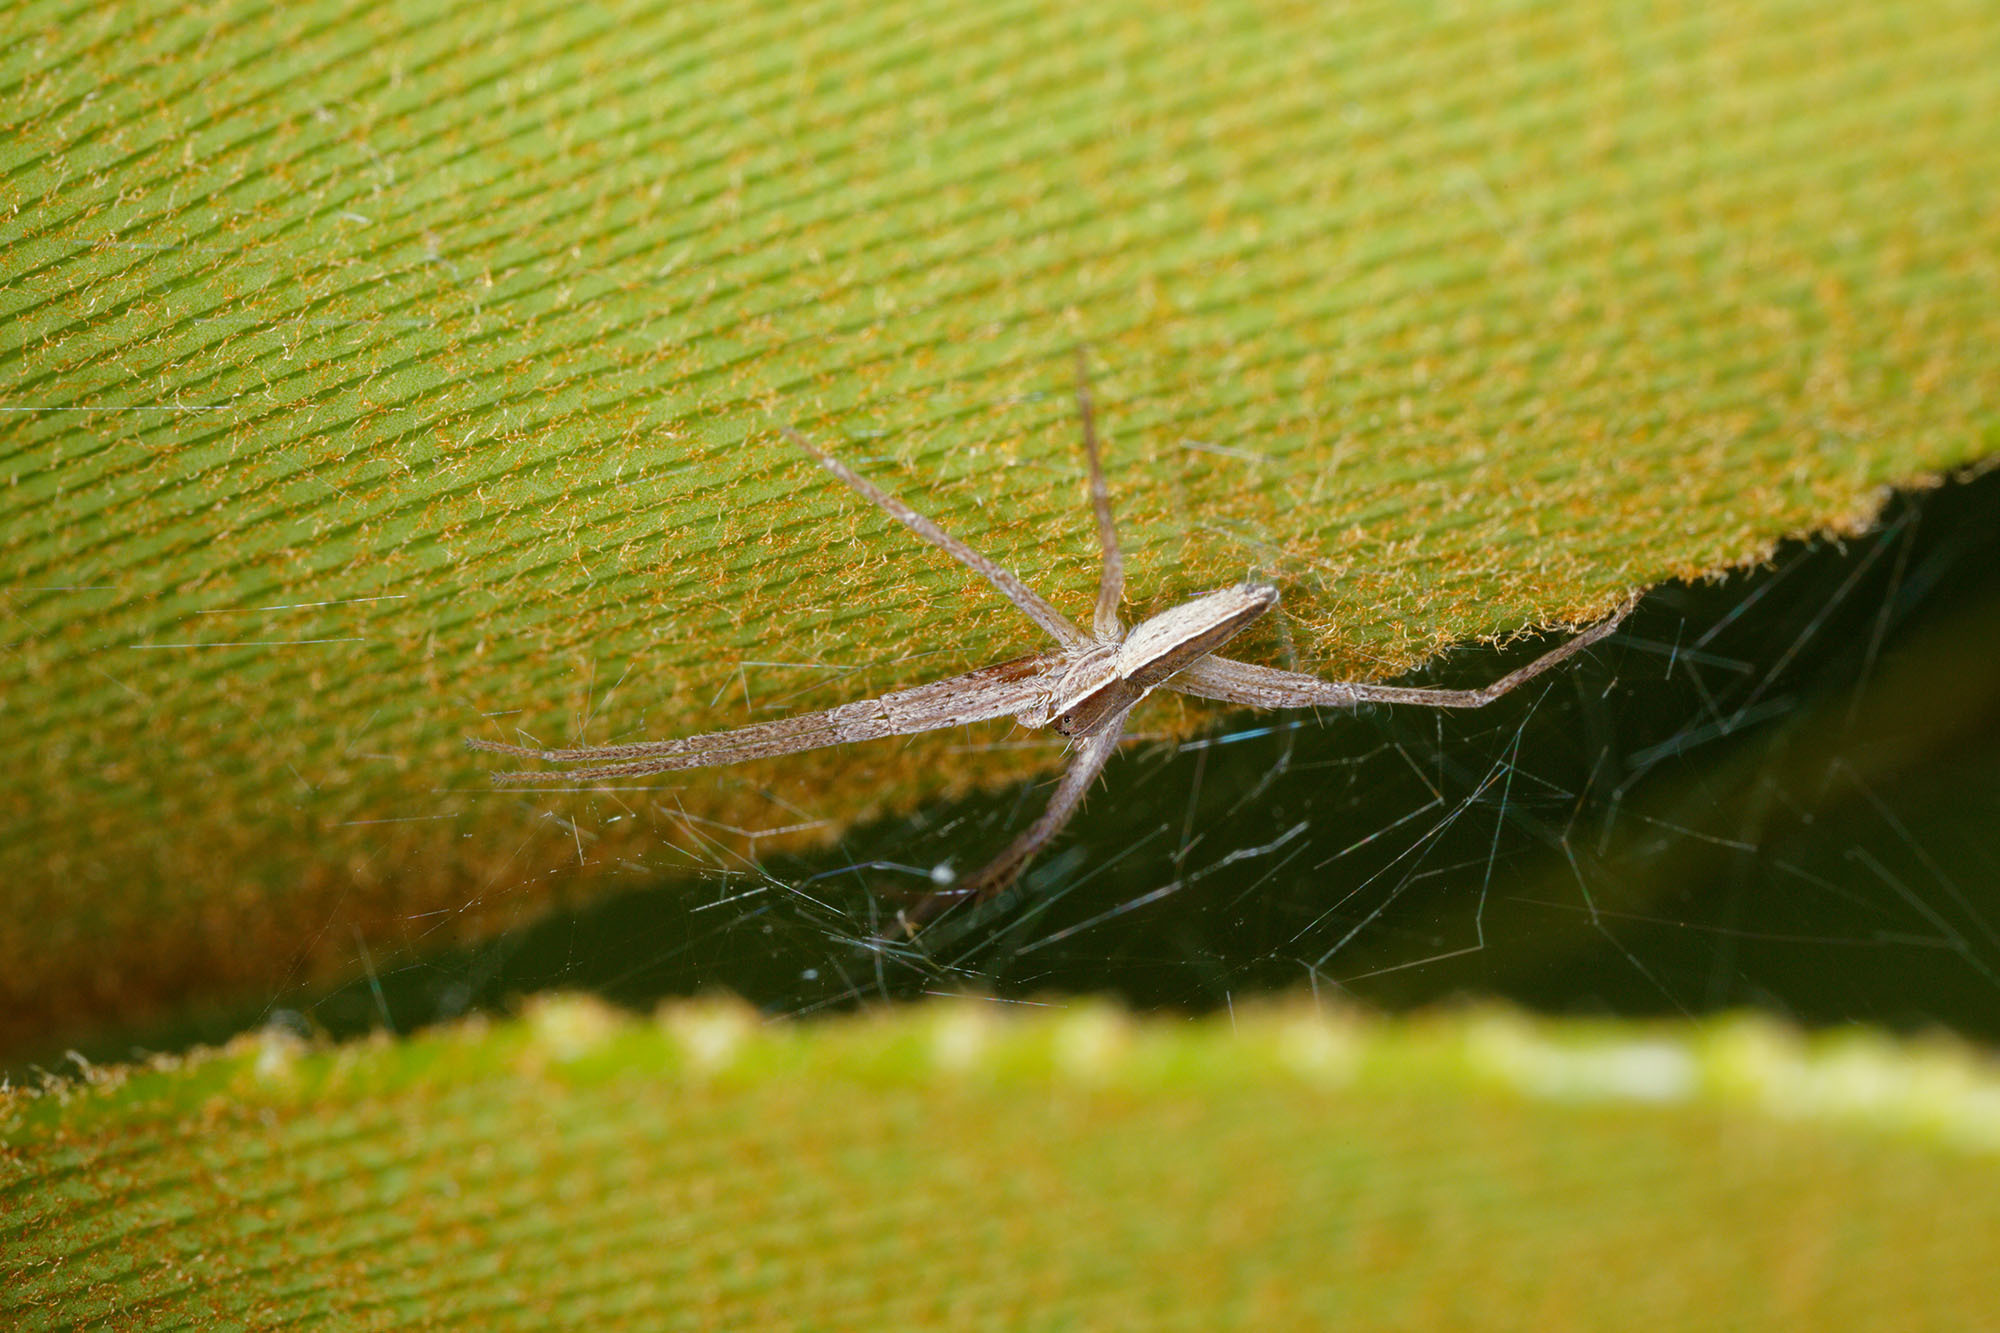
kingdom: Animalia
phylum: Arthropoda
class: Arachnida
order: Araneae
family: Pisauridae
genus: Perenethis
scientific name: Perenethis venusta
